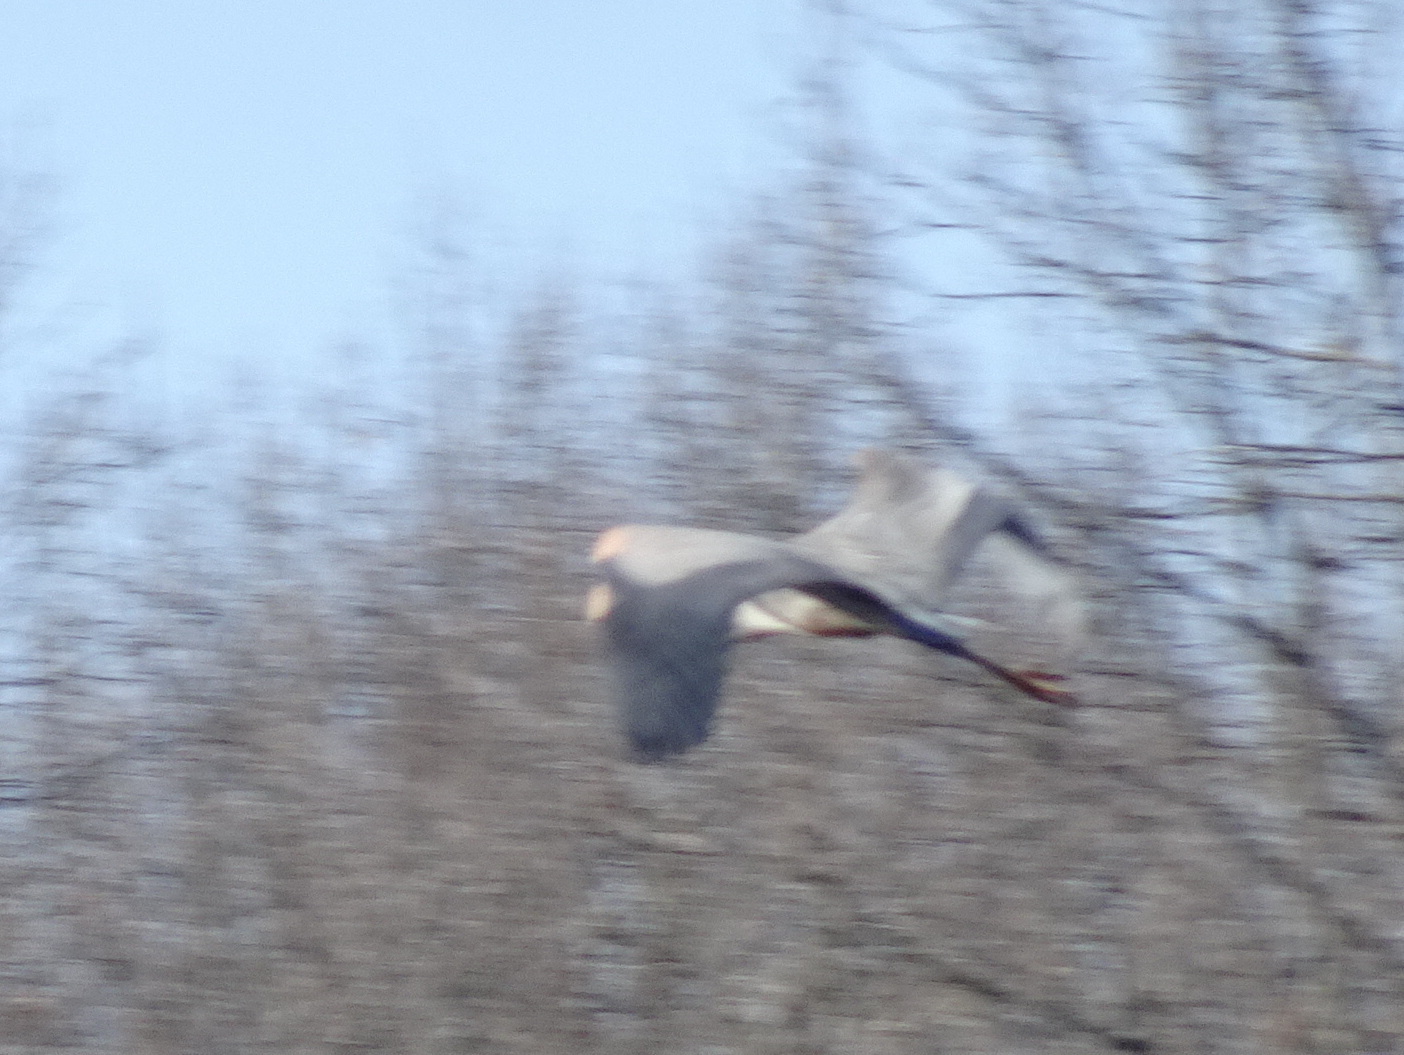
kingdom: Animalia
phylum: Chordata
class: Aves
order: Pelecaniformes
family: Ardeidae
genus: Ardea
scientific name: Ardea herodias
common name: Great blue heron
